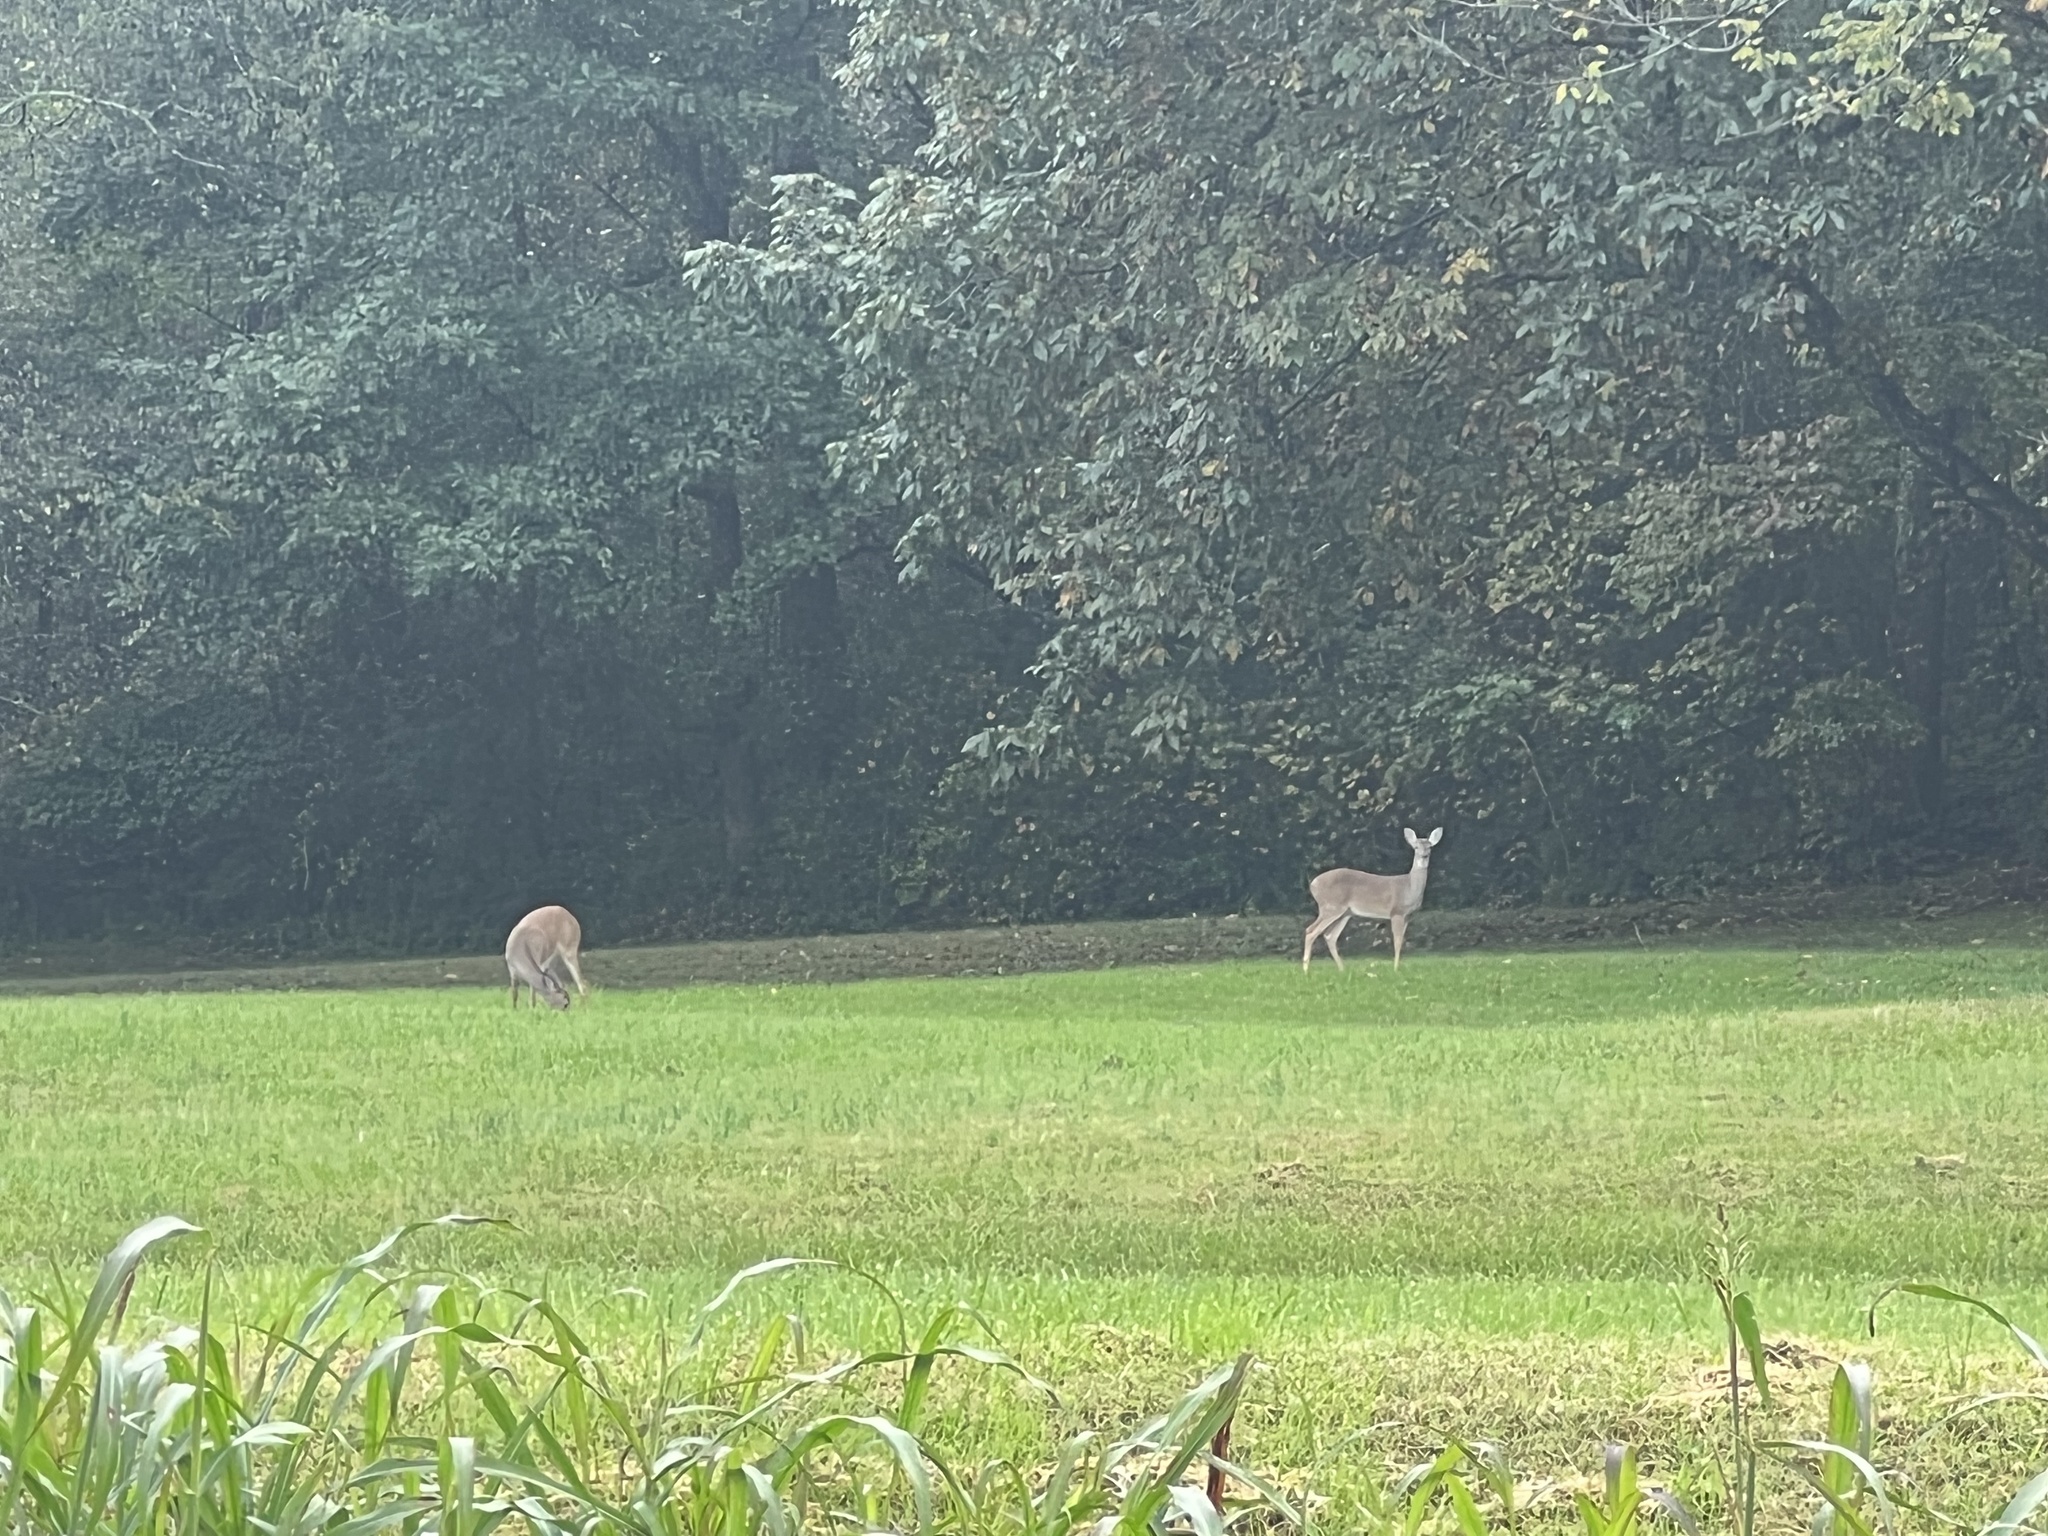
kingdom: Animalia
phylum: Chordata
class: Mammalia
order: Artiodactyla
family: Cervidae
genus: Odocoileus
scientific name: Odocoileus virginianus
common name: White-tailed deer
